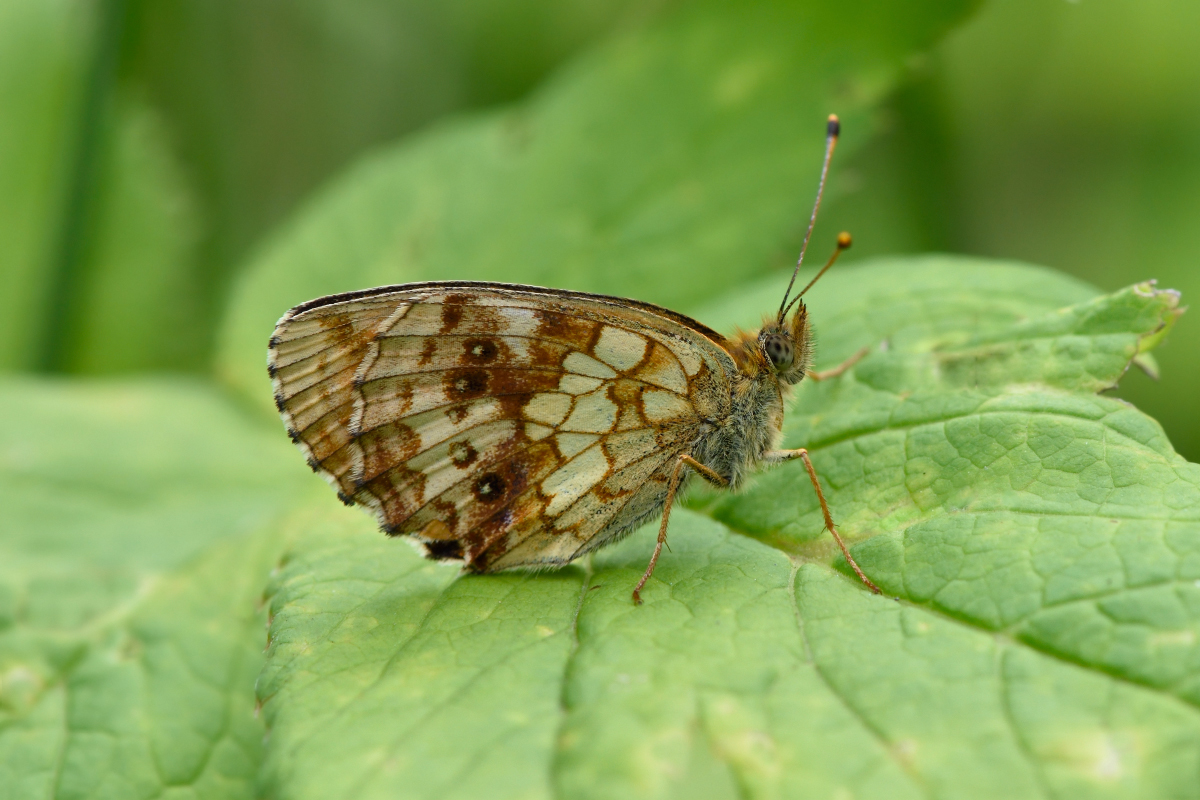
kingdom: Animalia
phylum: Arthropoda
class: Insecta
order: Lepidoptera
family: Nymphalidae
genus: Brenthis
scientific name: Brenthis ino
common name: Lesser marbled fritillary
